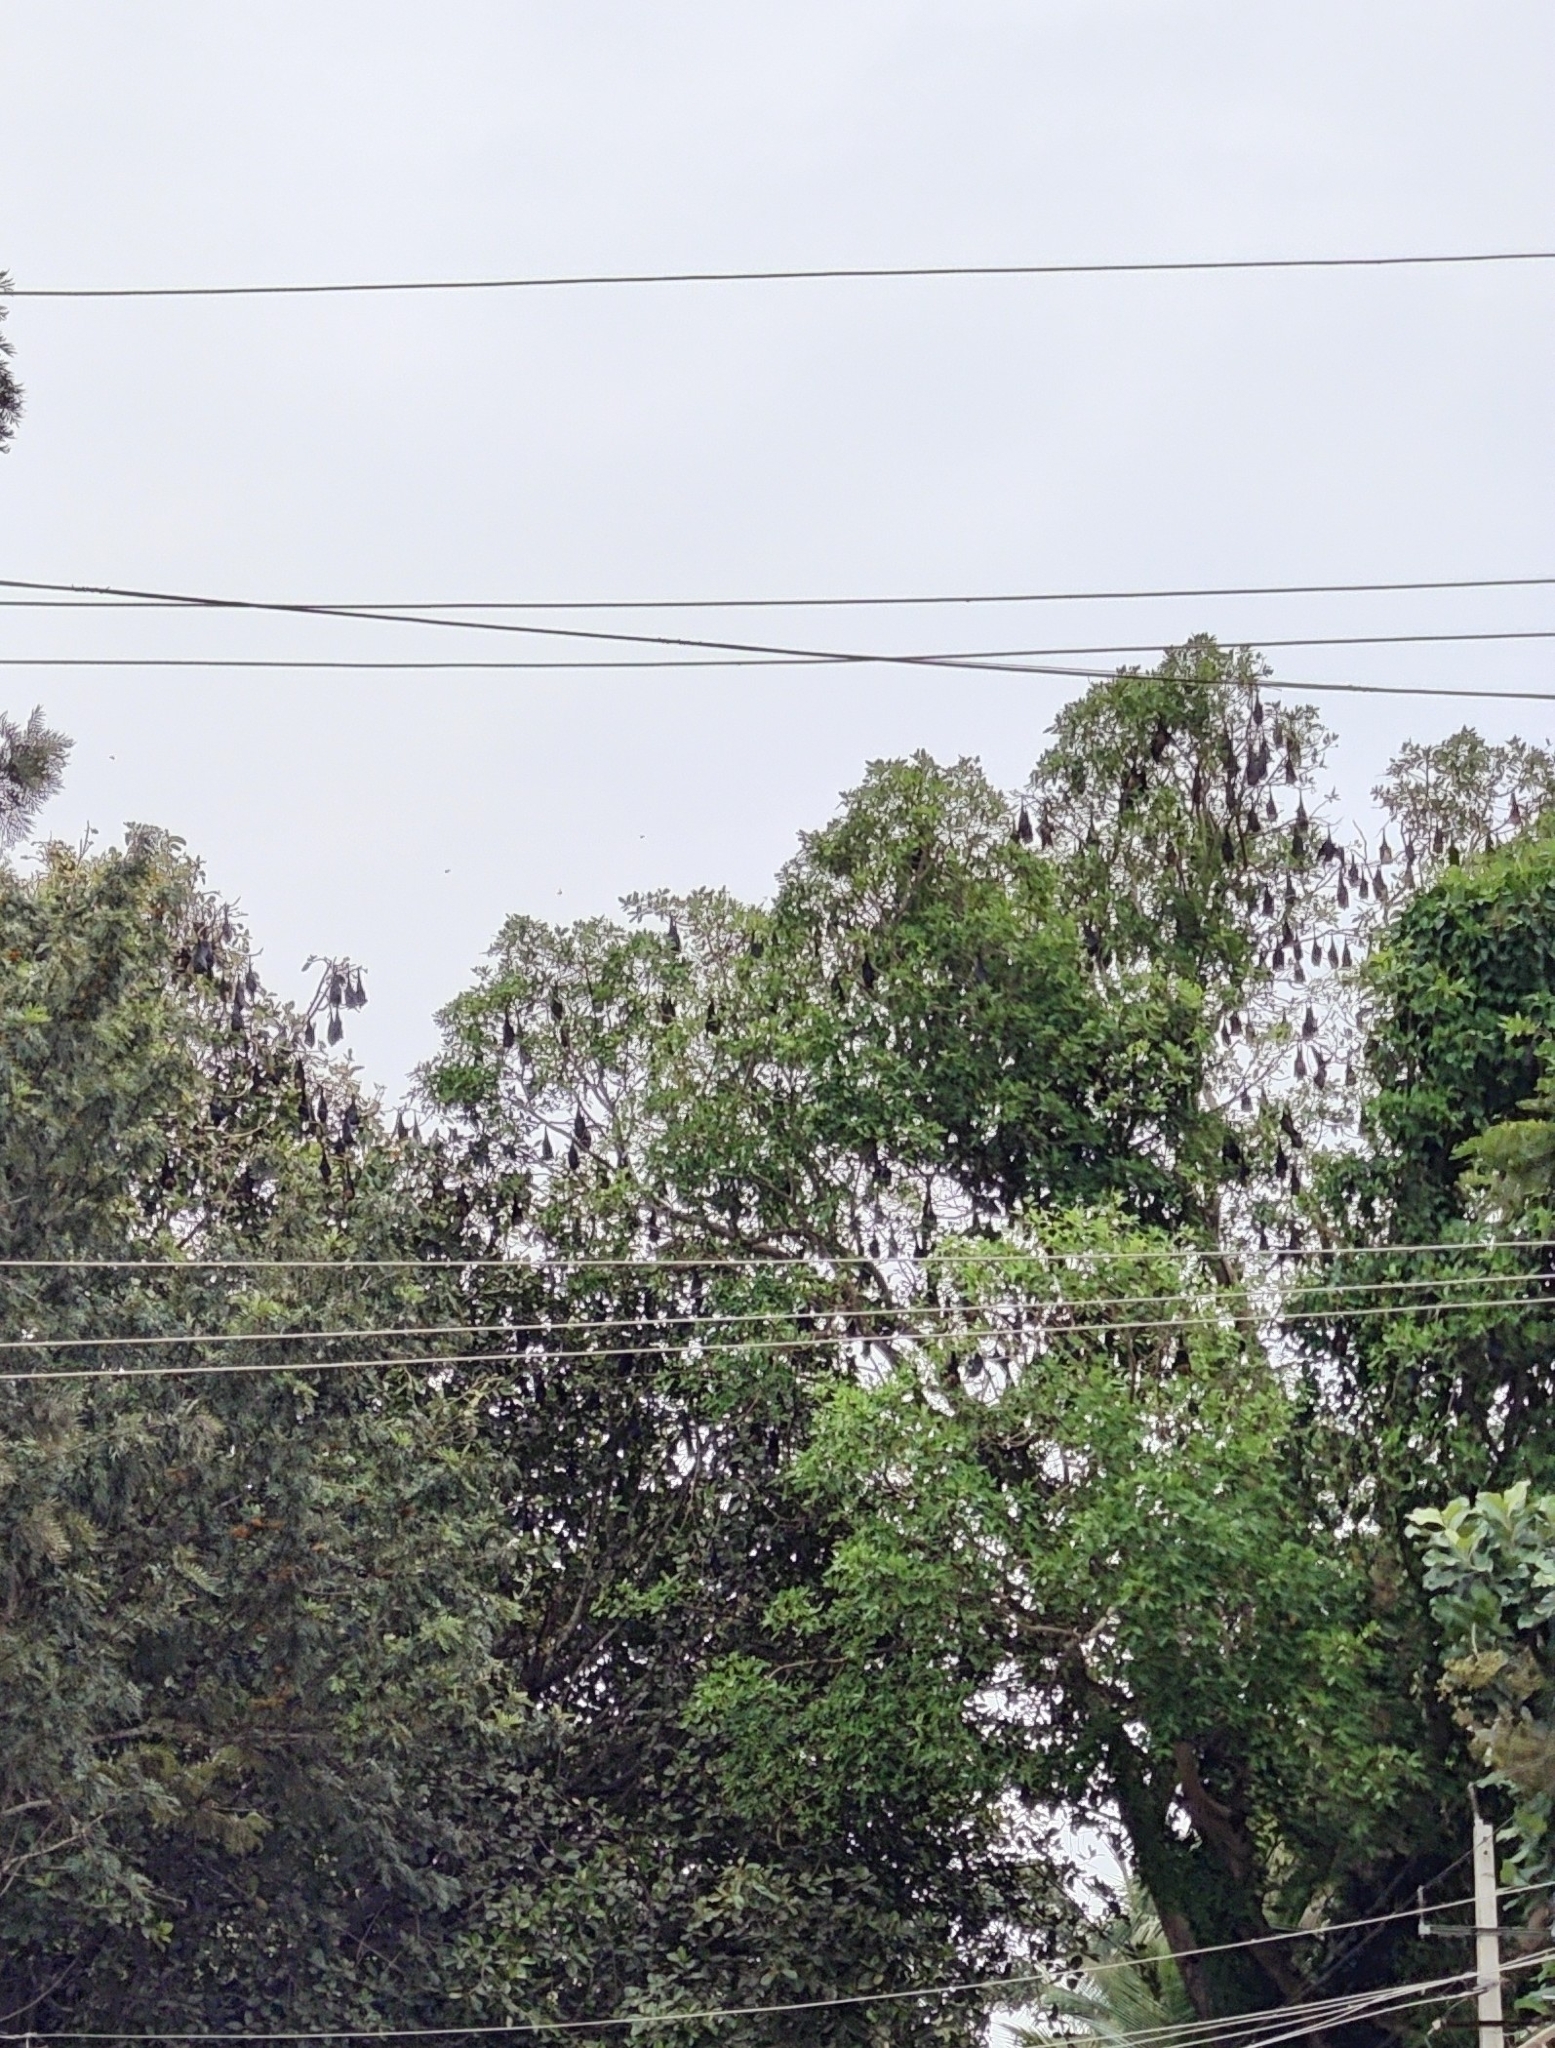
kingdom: Animalia
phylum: Chordata
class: Mammalia
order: Chiroptera
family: Pteropodidae
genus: Pteropus
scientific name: Pteropus vampyrus
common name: Large flying fox
